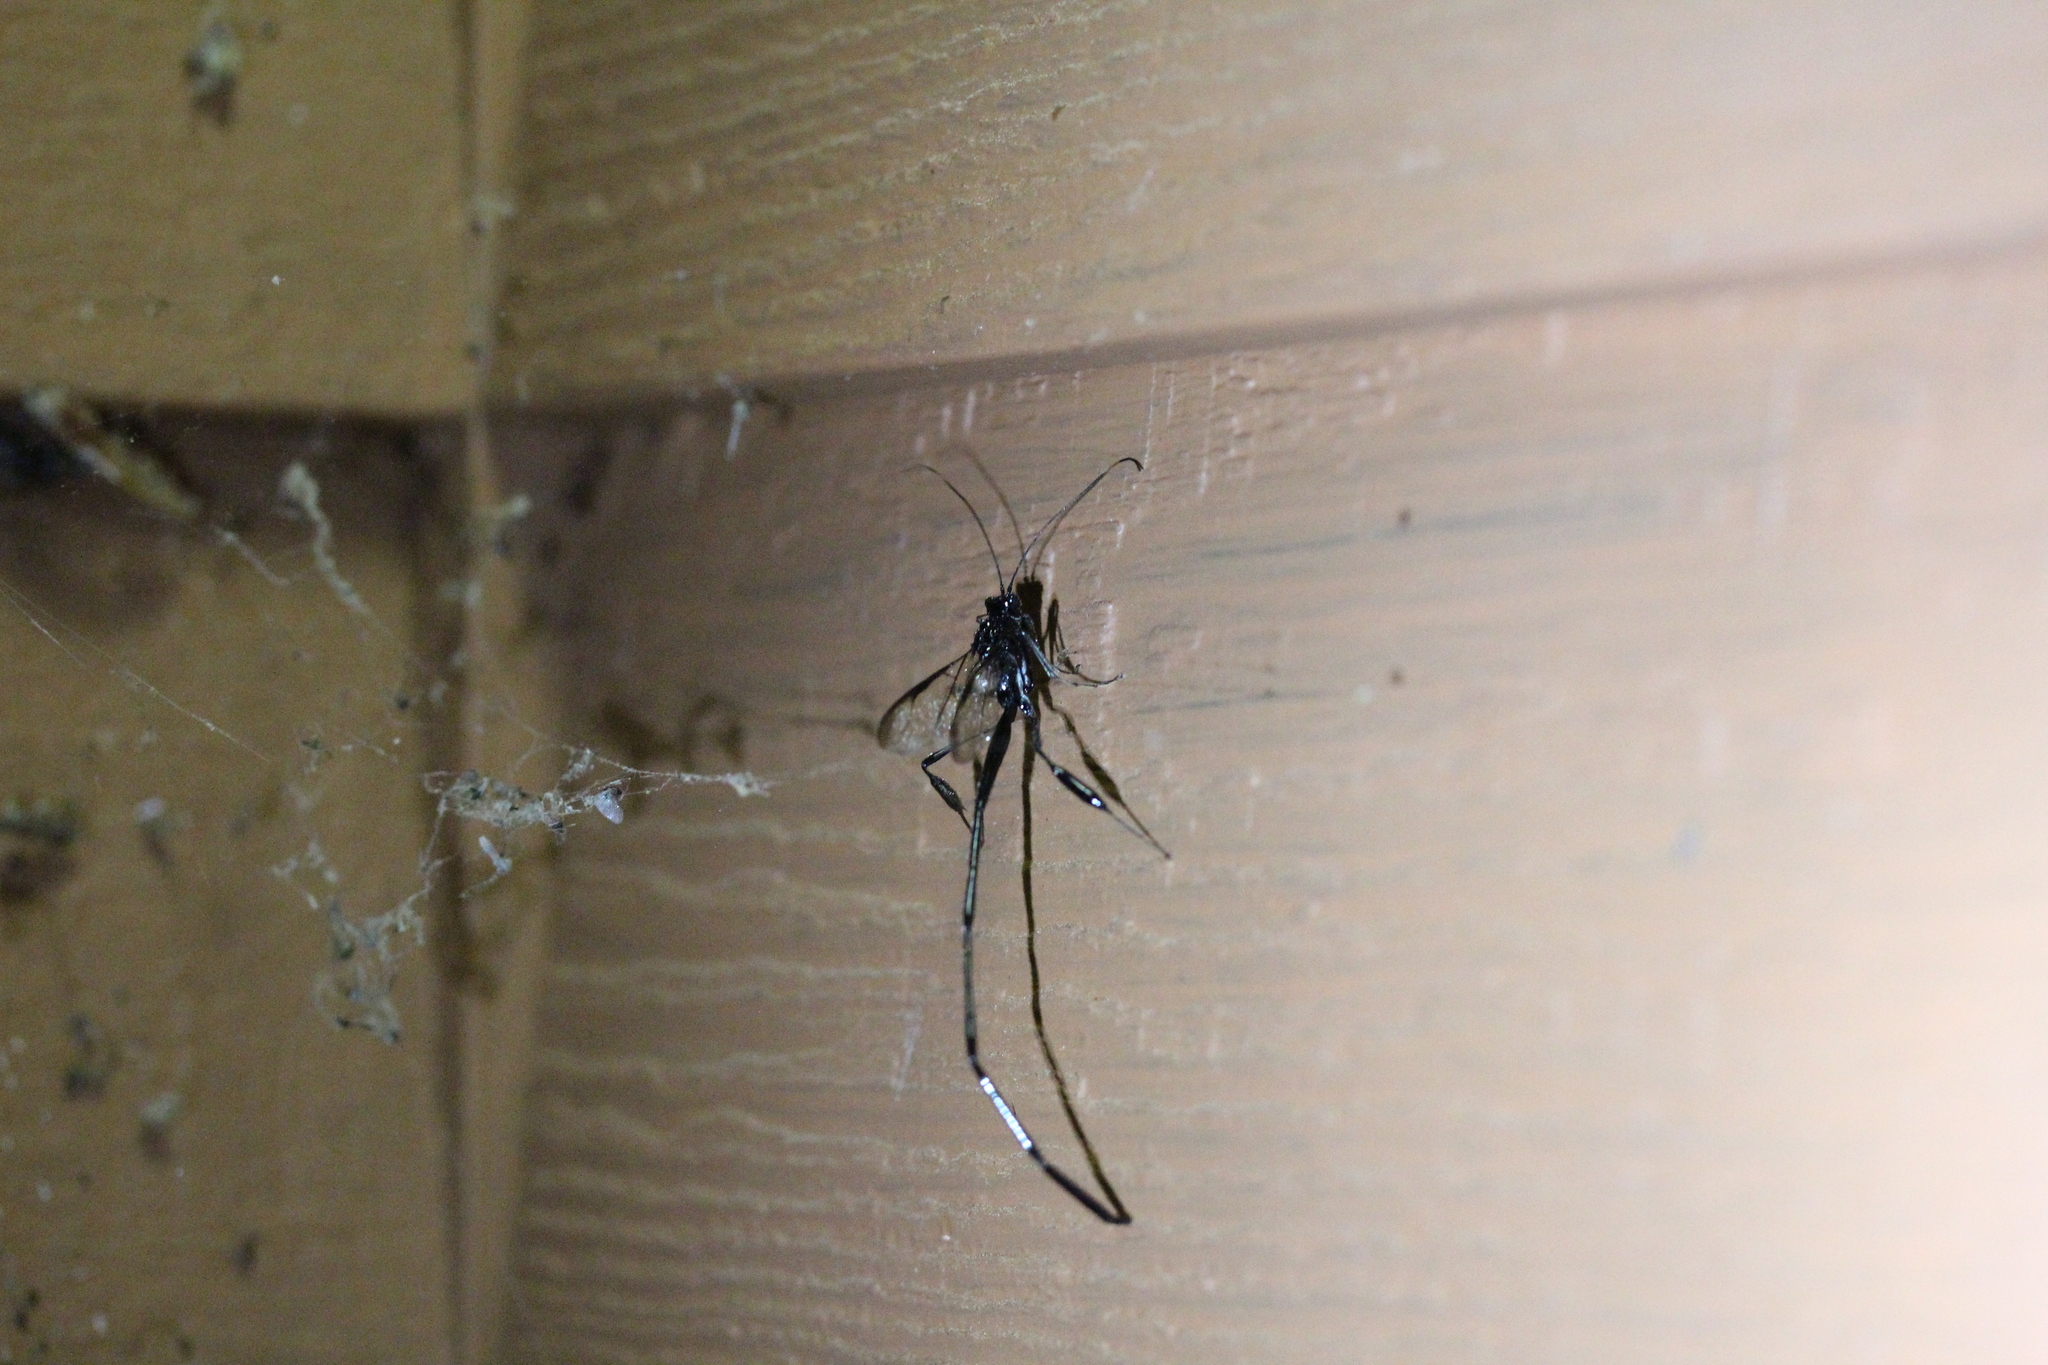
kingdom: Animalia
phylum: Arthropoda
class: Insecta
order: Hymenoptera
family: Pelecinidae
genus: Pelecinus
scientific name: Pelecinus polyturator
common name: American pelecinid wasp
